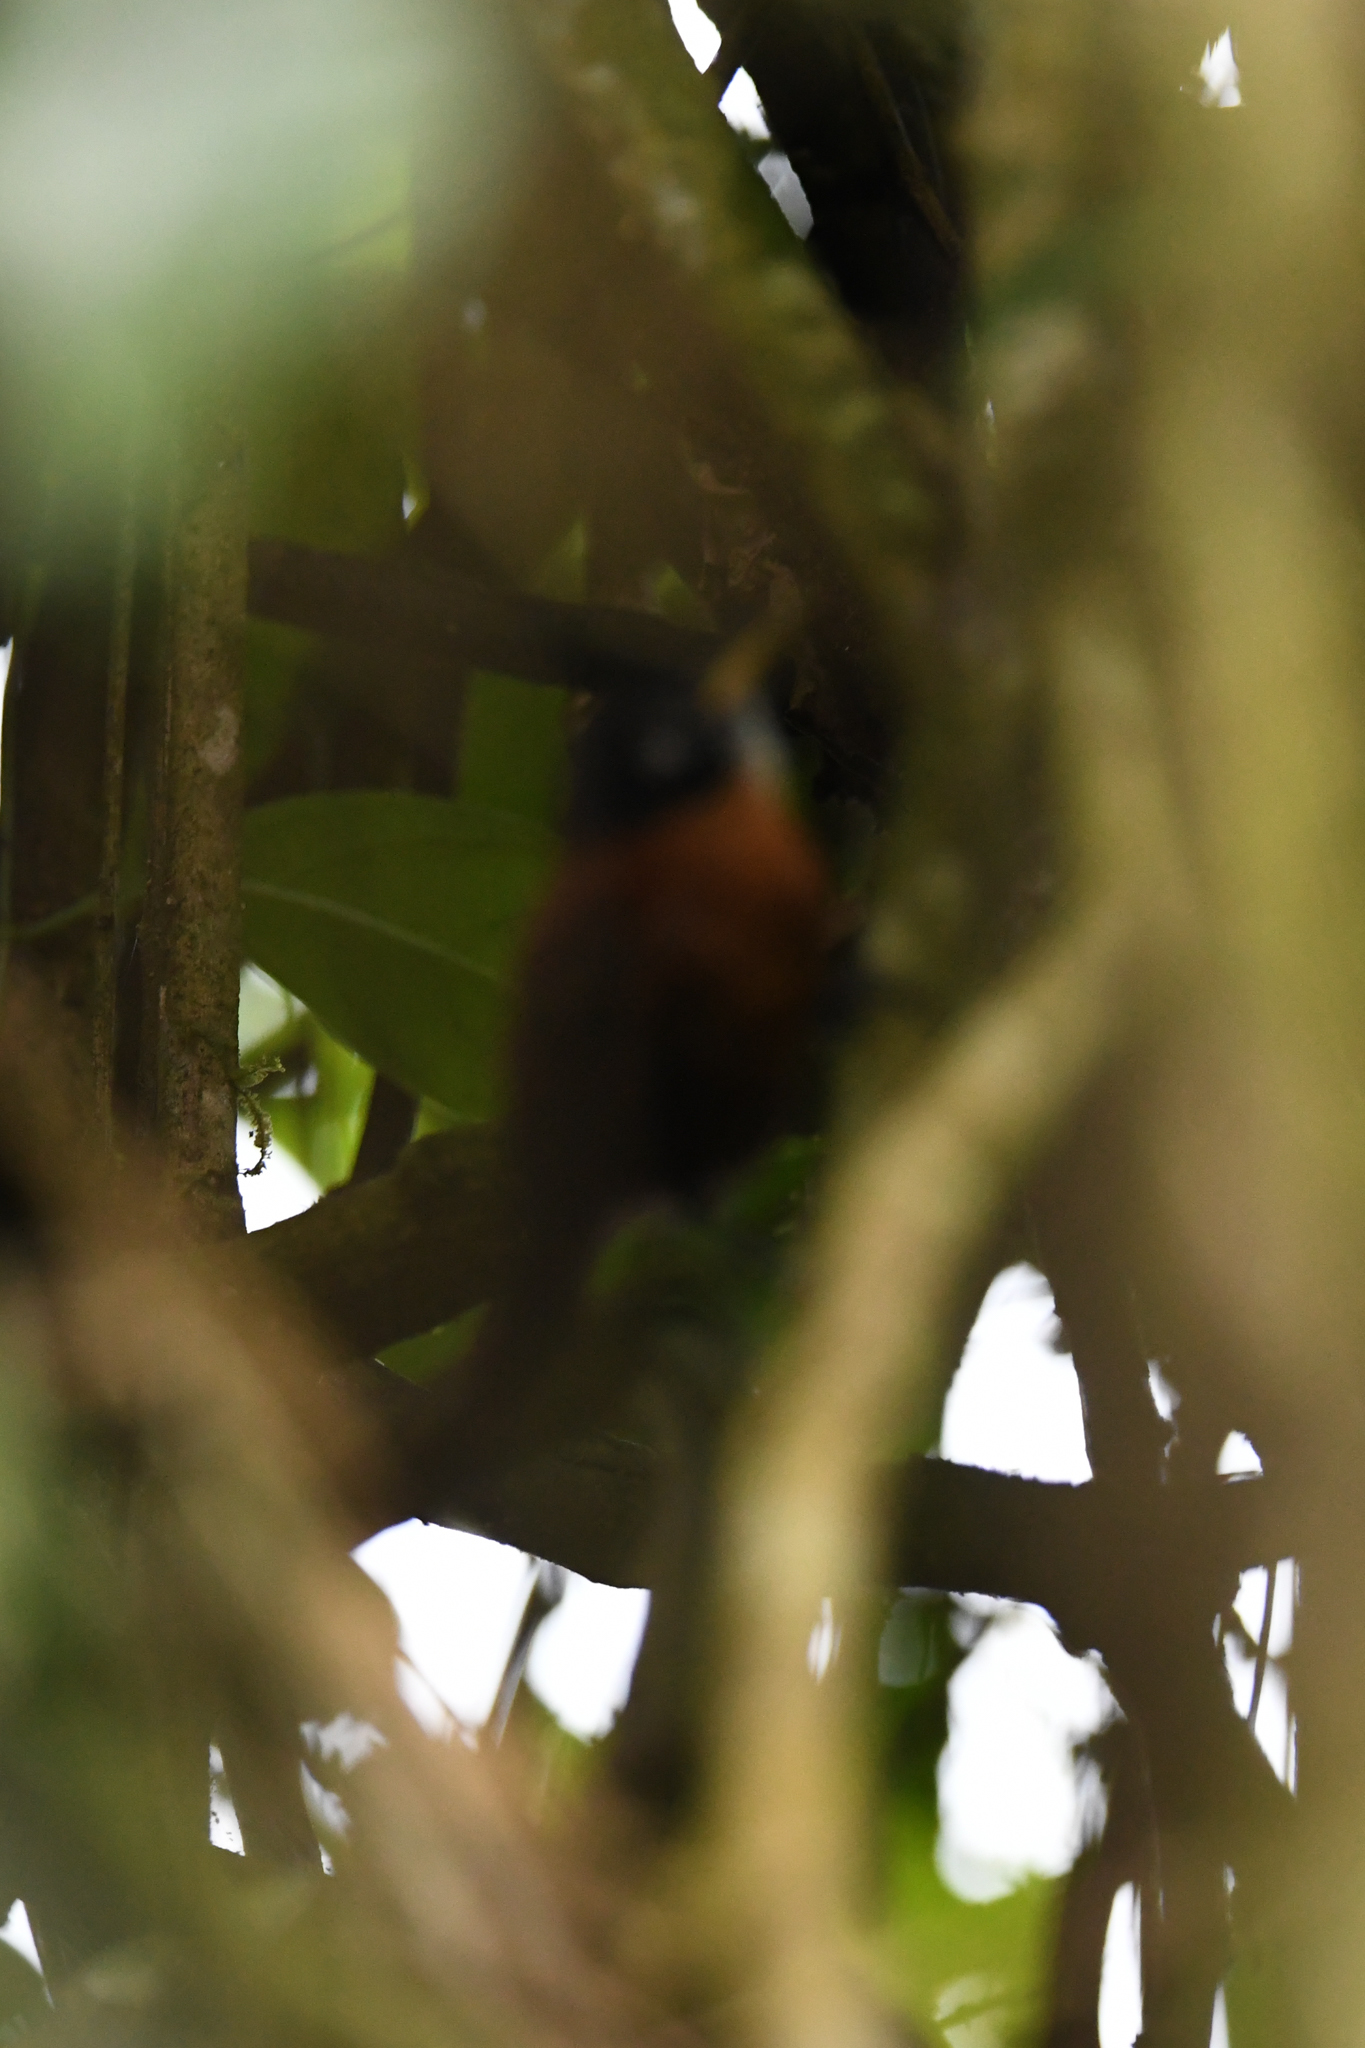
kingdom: Animalia
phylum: Chordata
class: Aves
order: Passeriformes
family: Troglodytidae
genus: Cantorchilus
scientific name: Cantorchilus nigricapillus
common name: Bay wren
